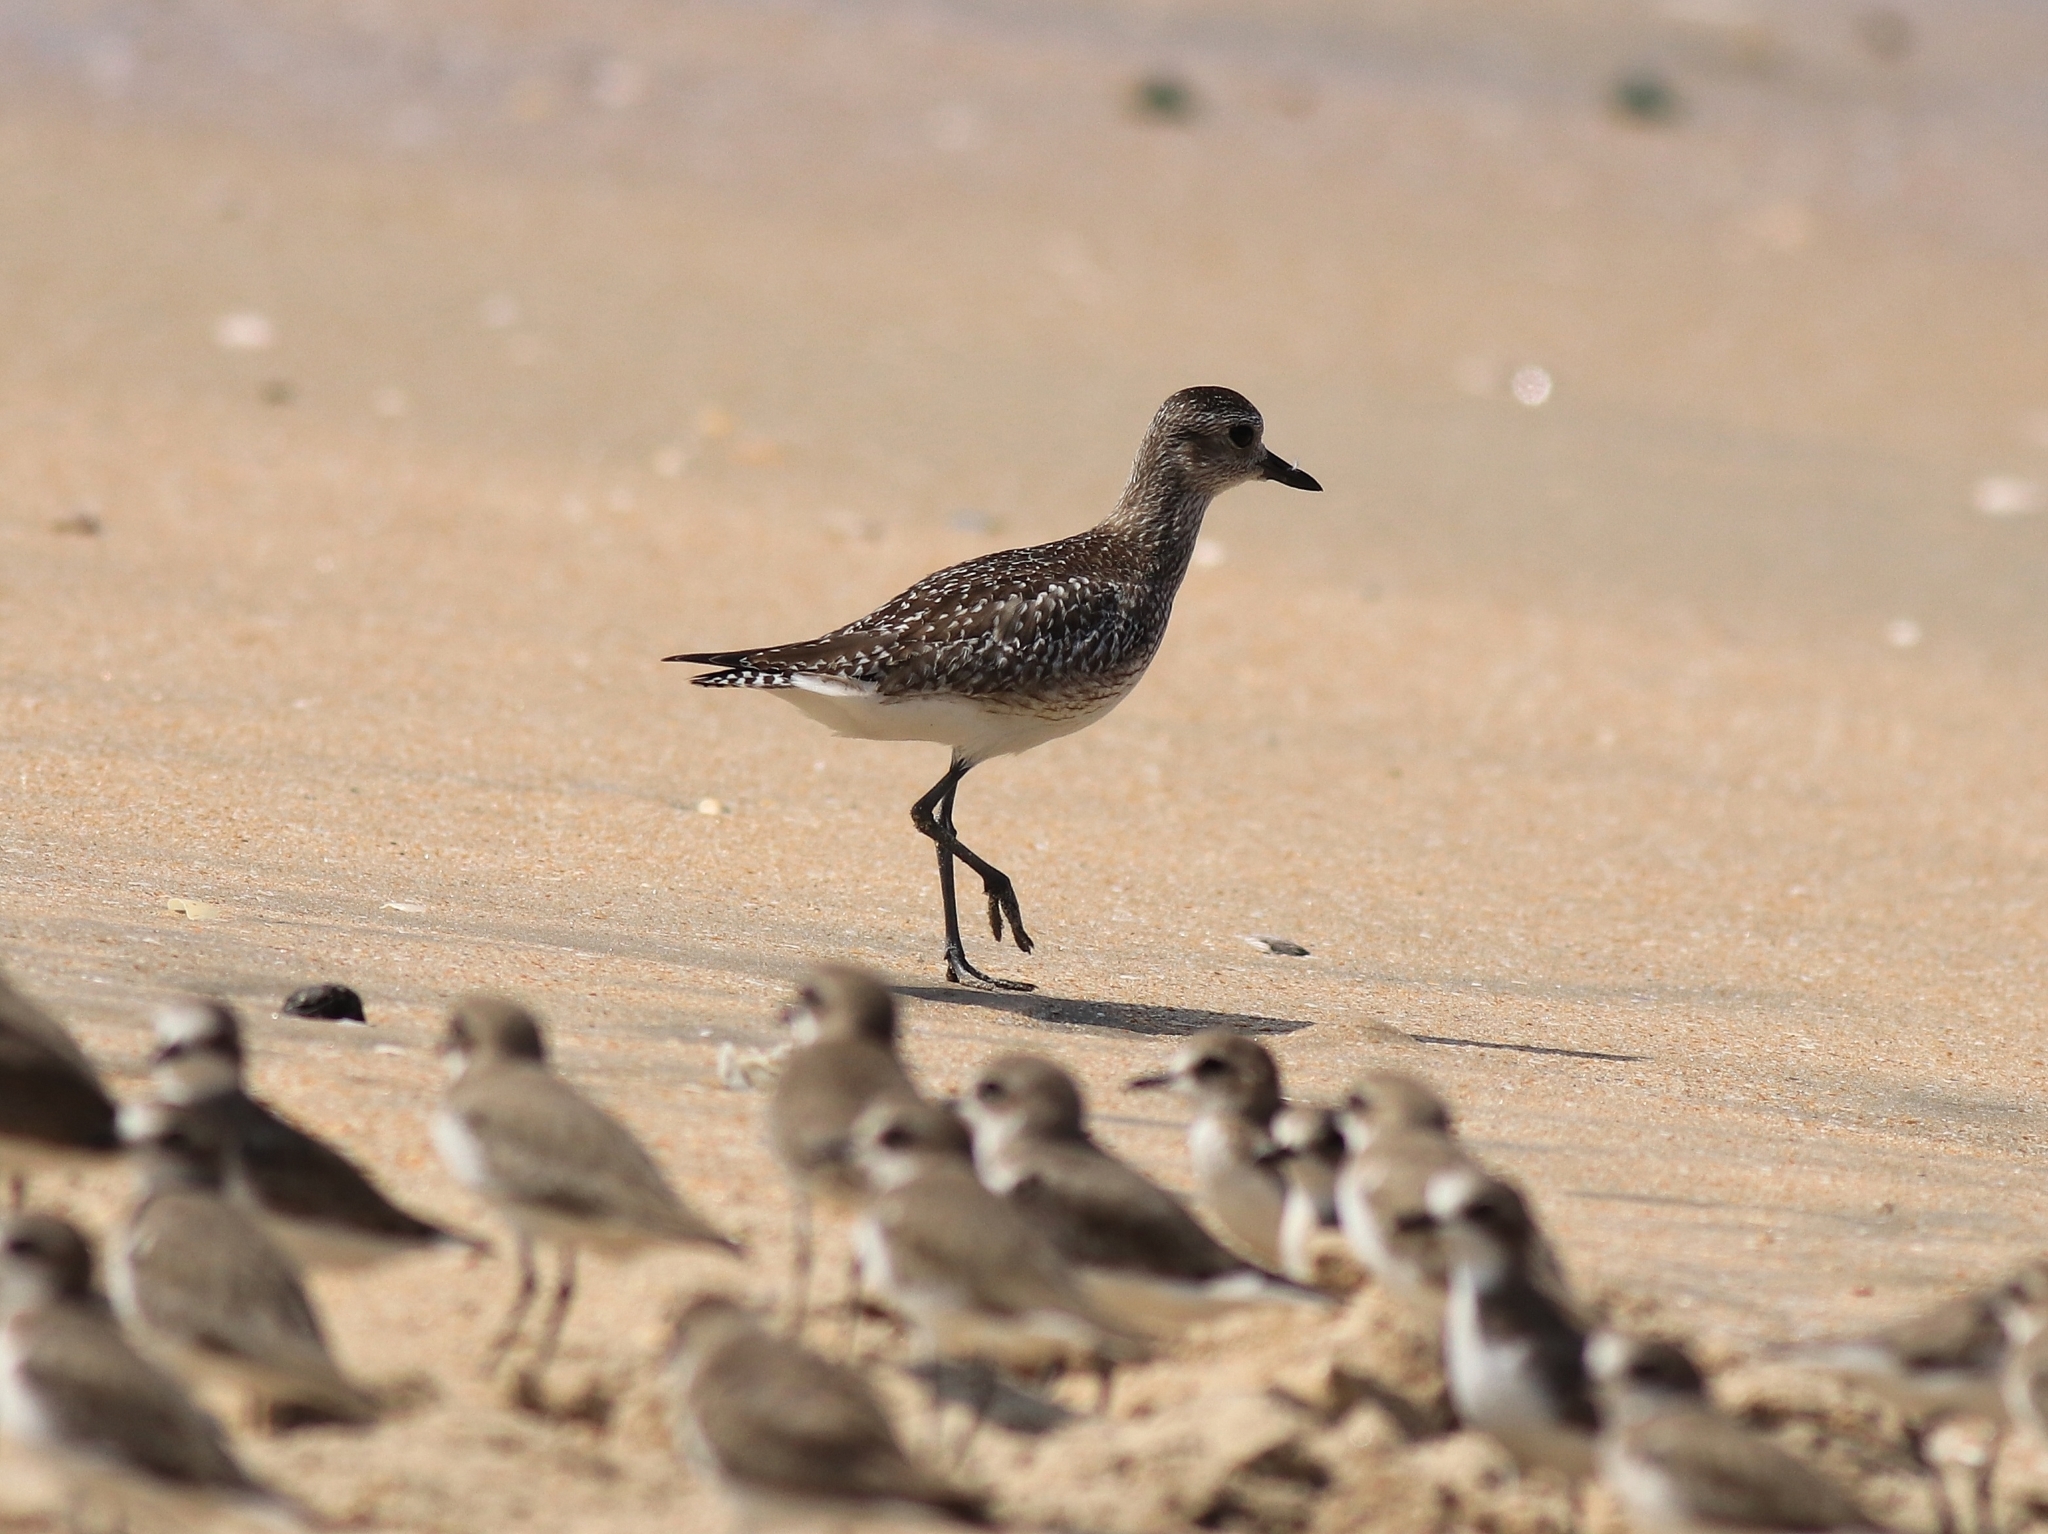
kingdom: Animalia
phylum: Chordata
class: Aves
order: Charadriiformes
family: Charadriidae
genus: Pluvialis
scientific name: Pluvialis squatarola
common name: Grey plover
